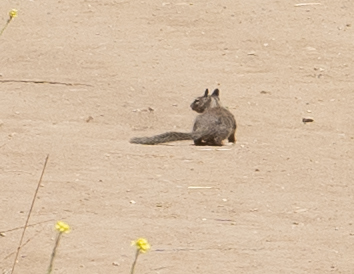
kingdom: Animalia
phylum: Chordata
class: Mammalia
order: Rodentia
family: Sciuridae
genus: Otospermophilus
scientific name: Otospermophilus beecheyi
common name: California ground squirrel
